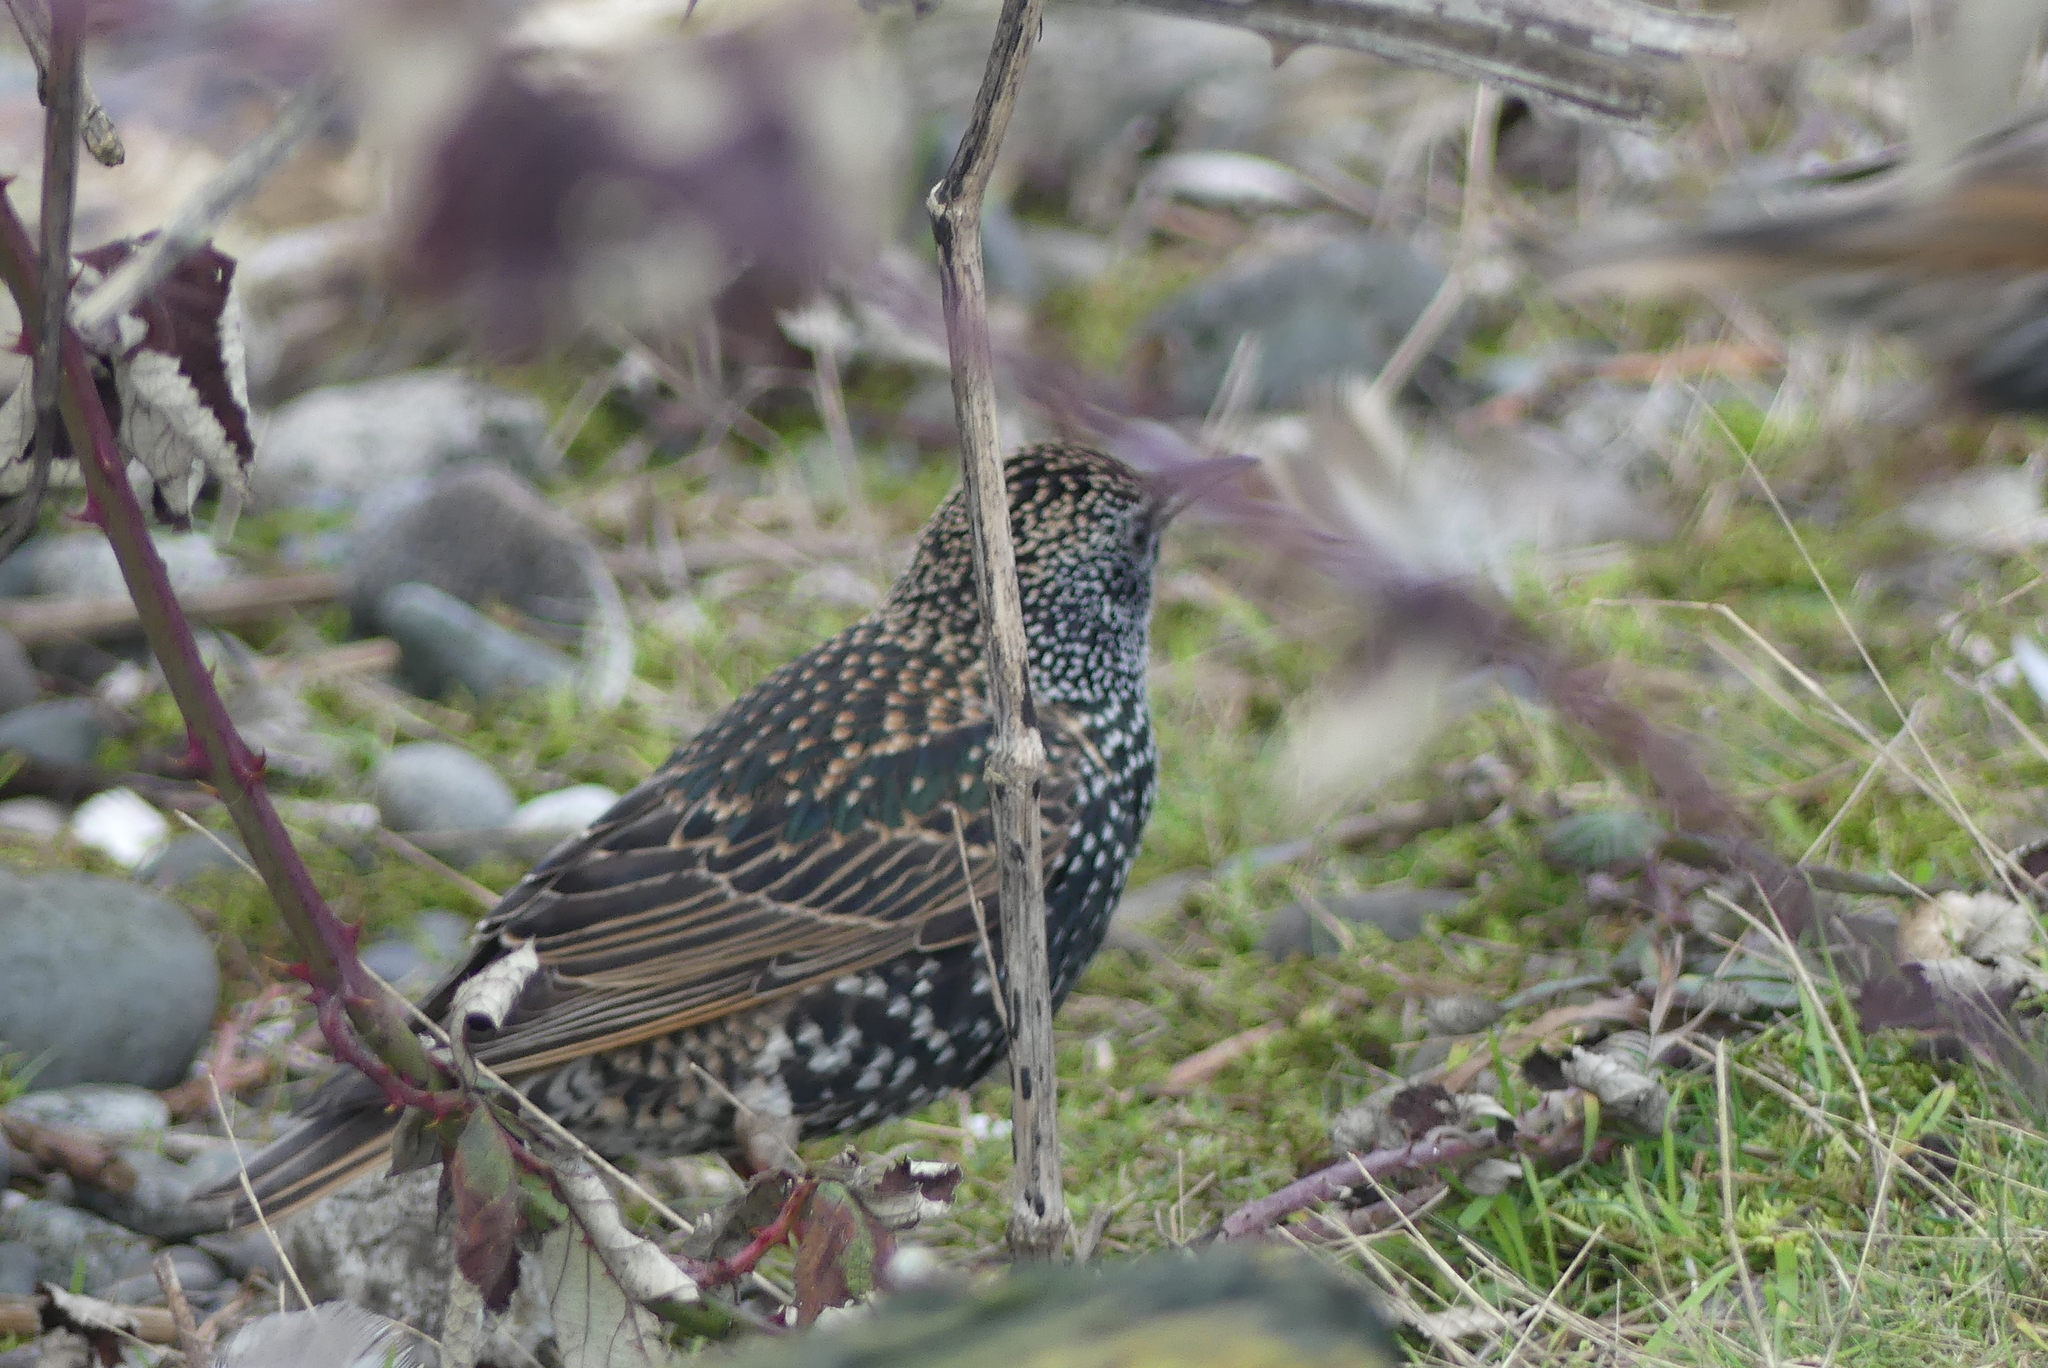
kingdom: Animalia
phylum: Chordata
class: Aves
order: Passeriformes
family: Sturnidae
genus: Sturnus
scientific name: Sturnus vulgaris
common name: Common starling
